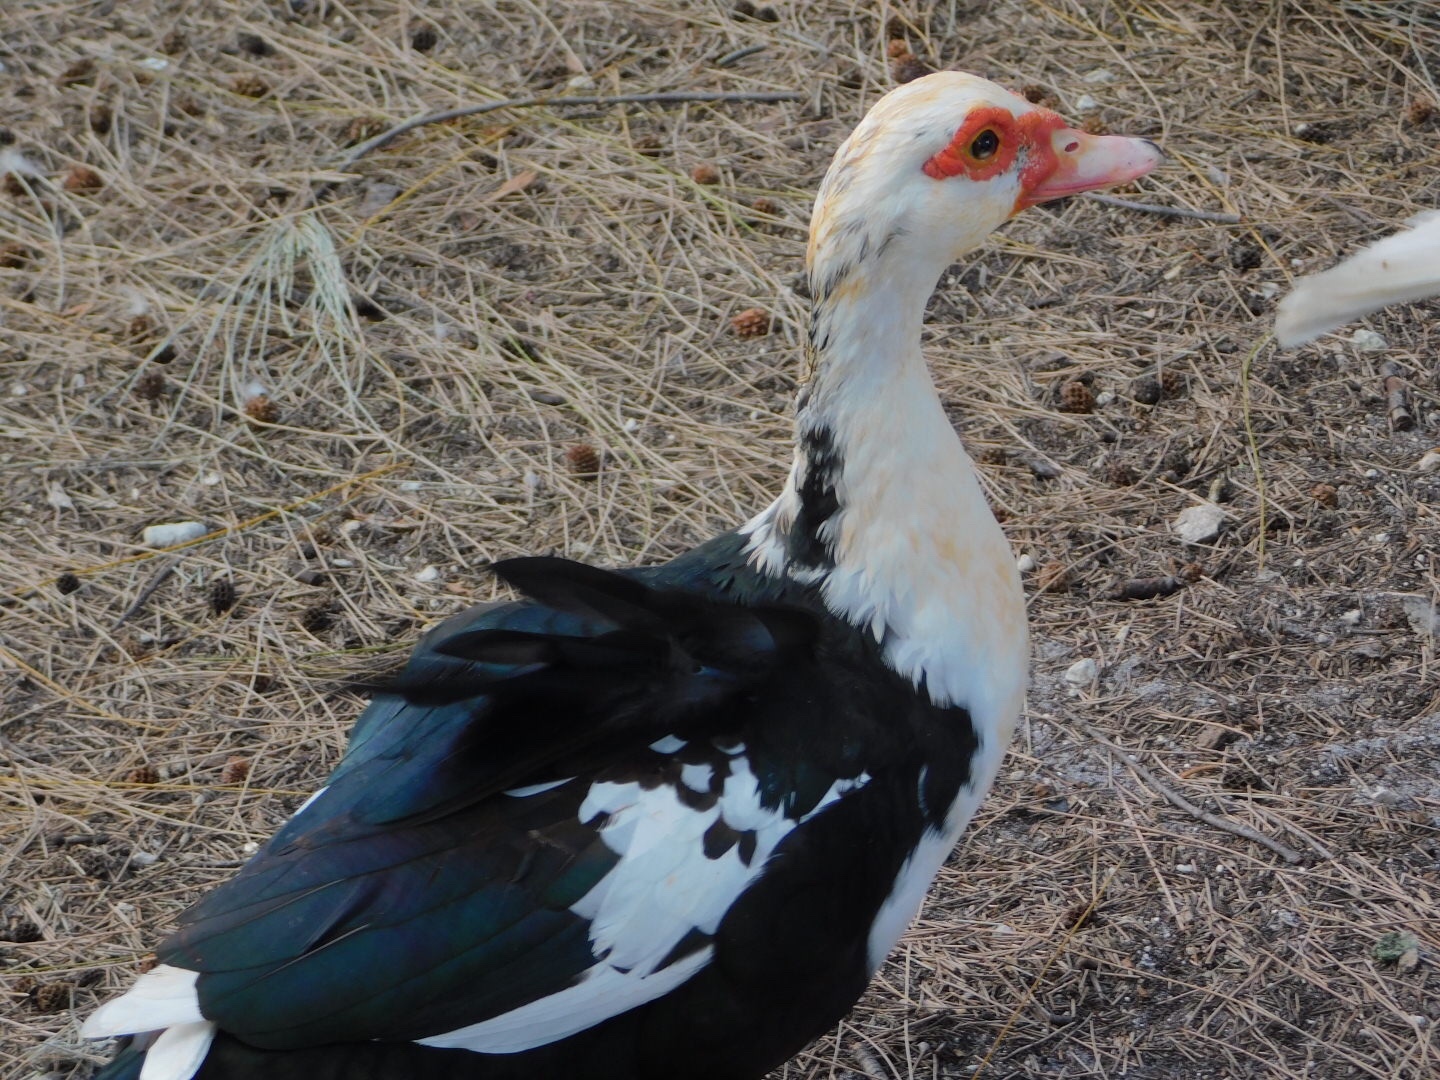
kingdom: Animalia
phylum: Chordata
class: Aves
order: Anseriformes
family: Anatidae
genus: Cairina
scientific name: Cairina moschata
